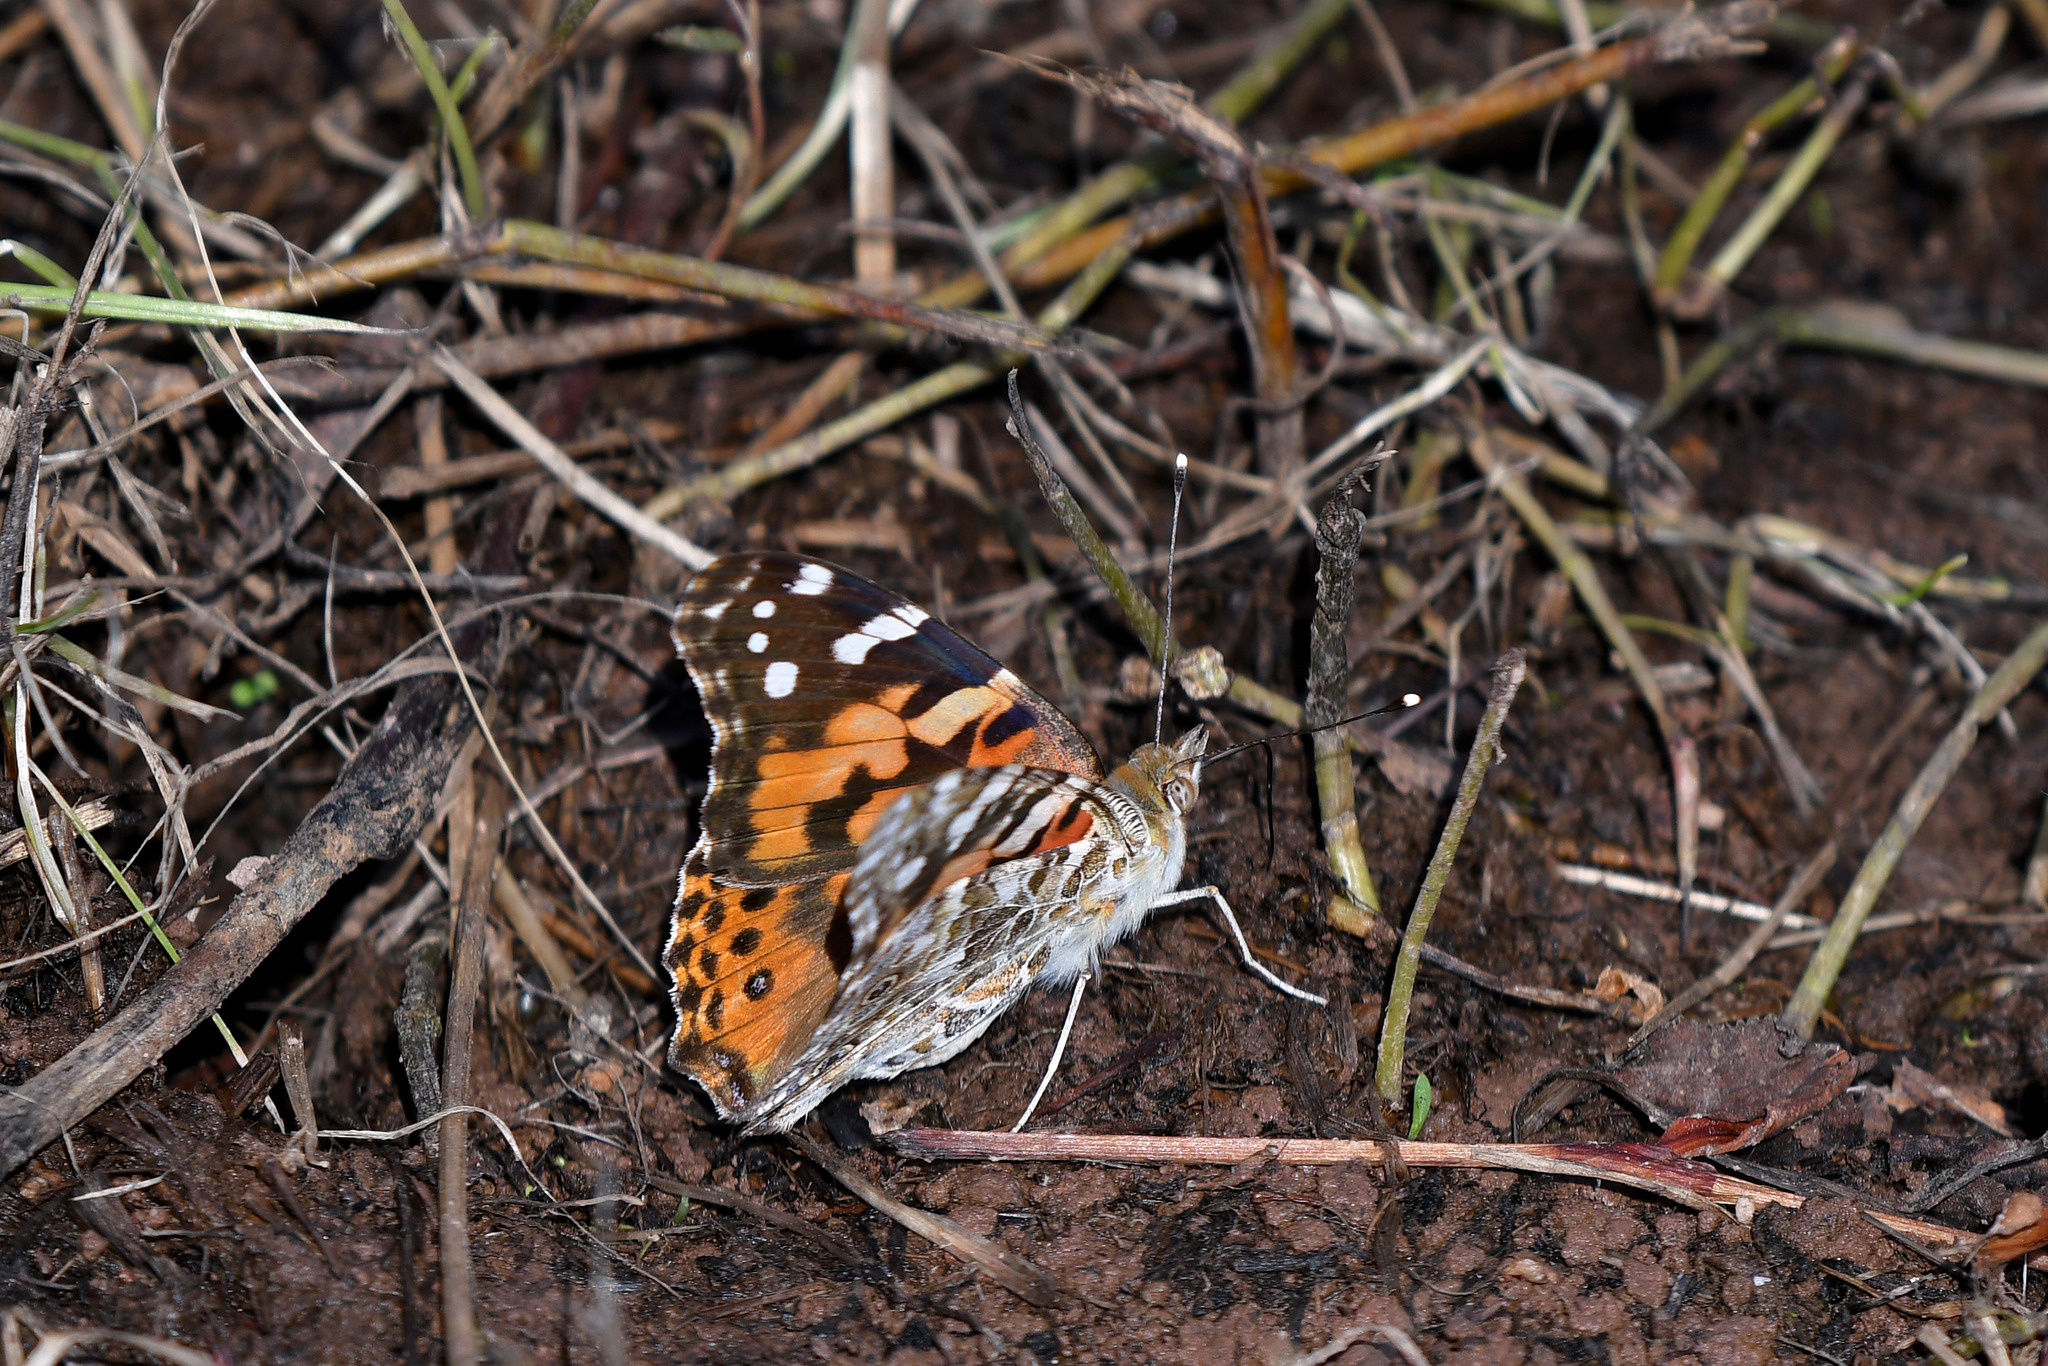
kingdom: Animalia
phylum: Arthropoda
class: Insecta
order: Lepidoptera
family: Nymphalidae
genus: Vanessa
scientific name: Vanessa cardui
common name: Painted lady
